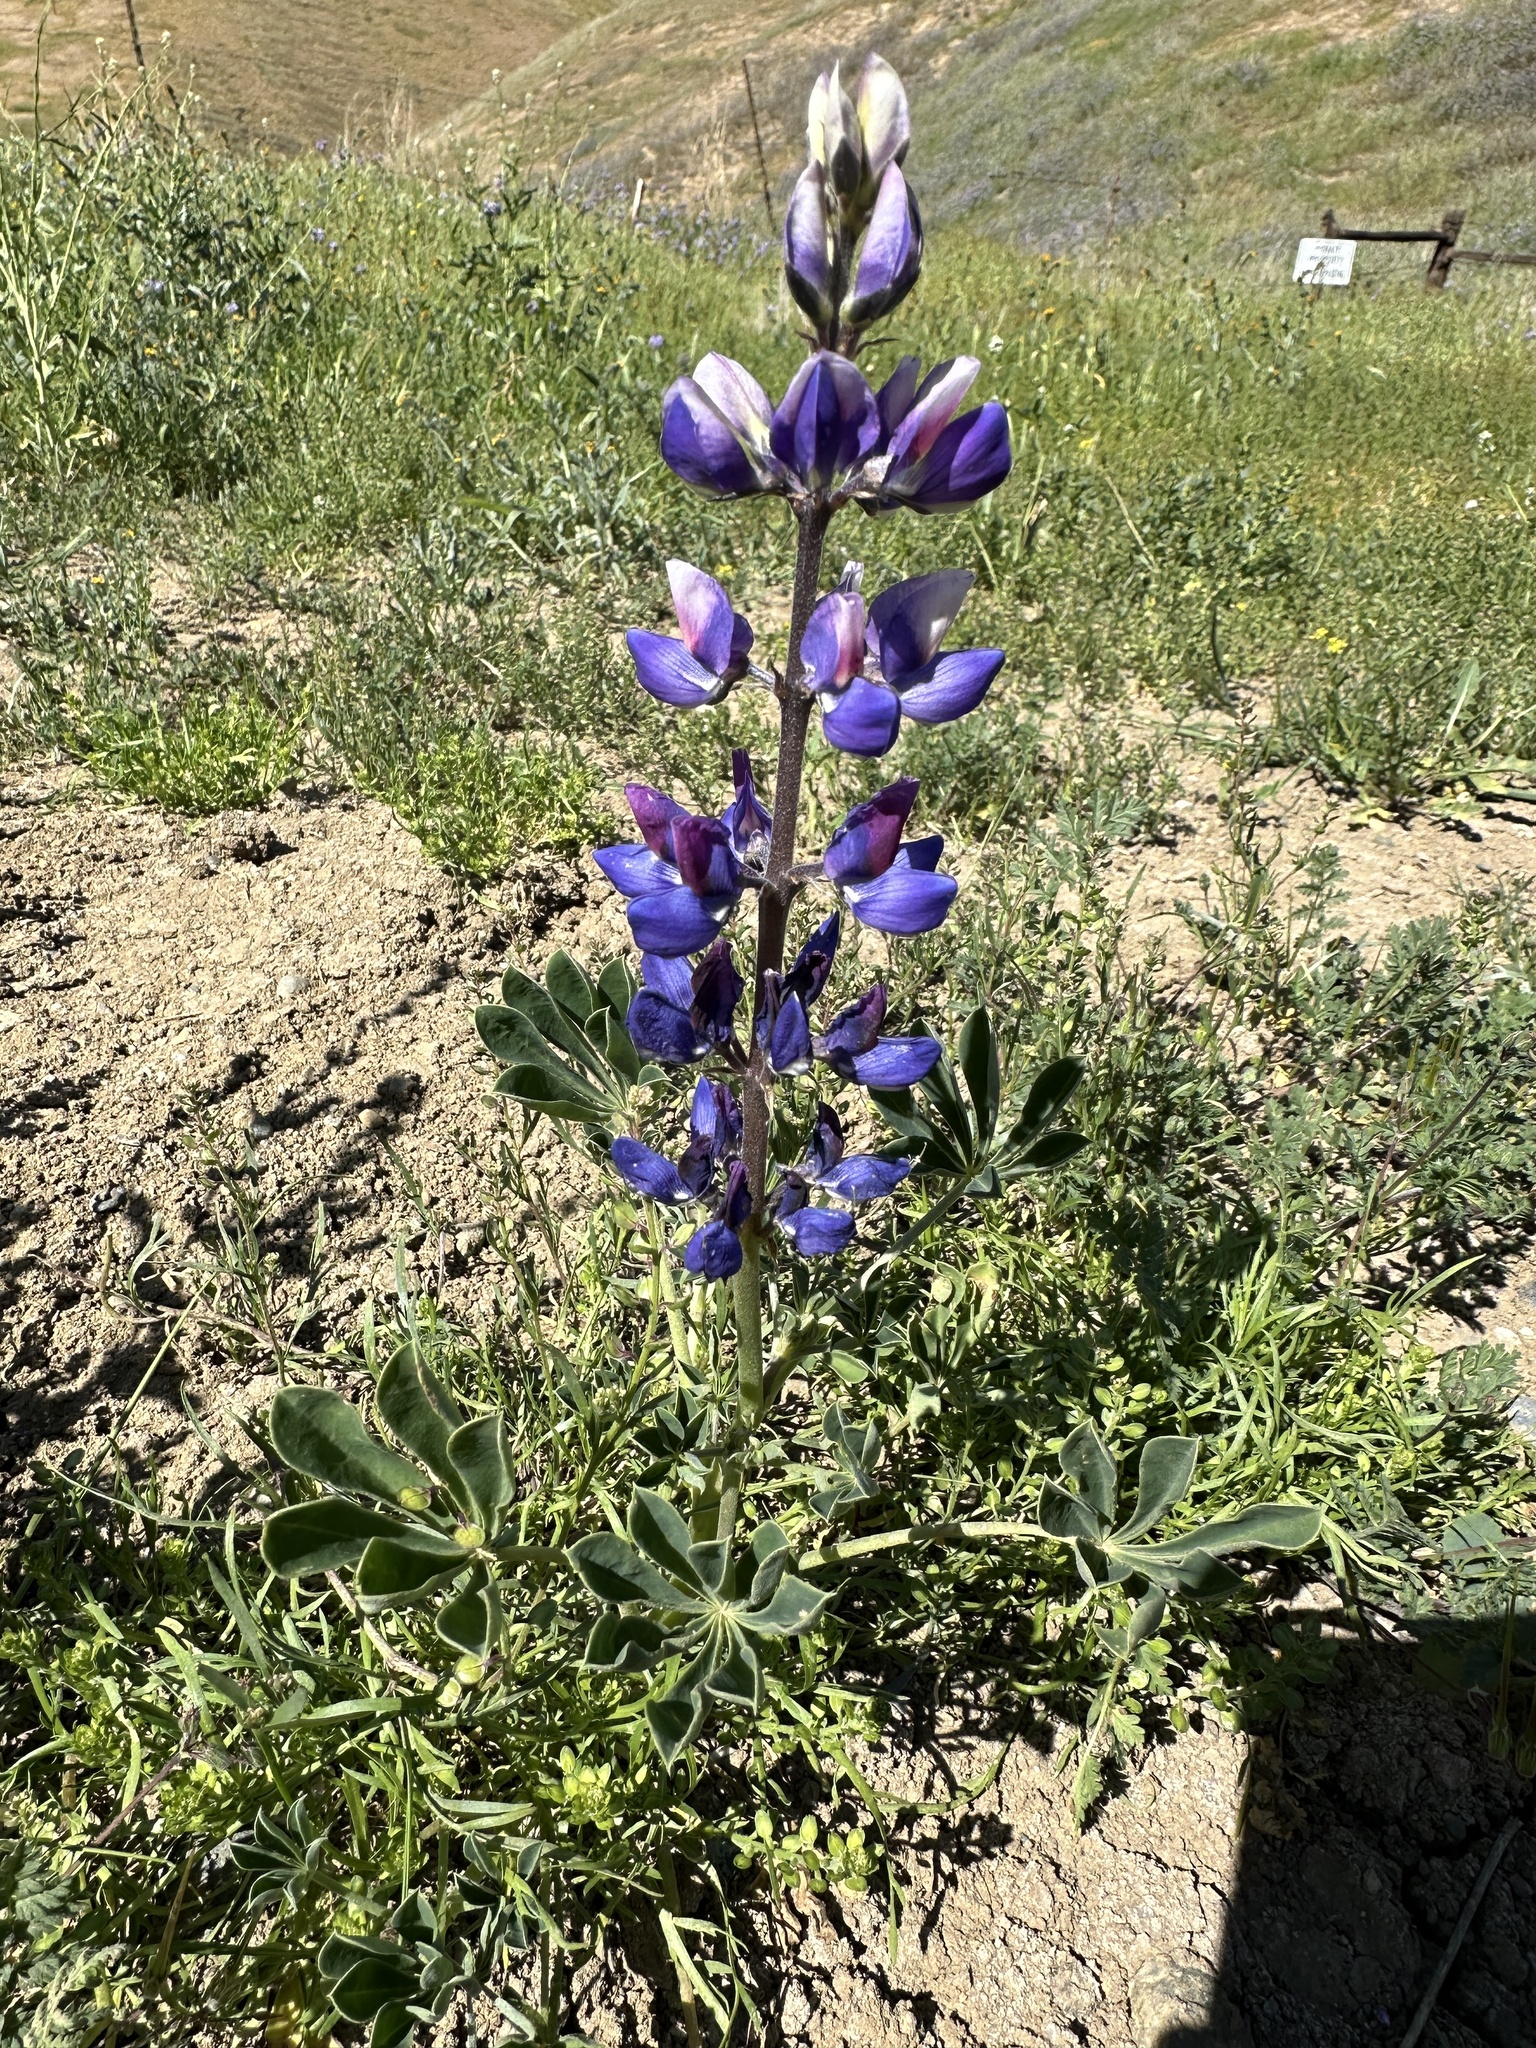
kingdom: Plantae
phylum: Tracheophyta
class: Magnoliopsida
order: Fabales
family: Fabaceae
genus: Lupinus
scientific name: Lupinus succulentus
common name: Arroyo lupine
